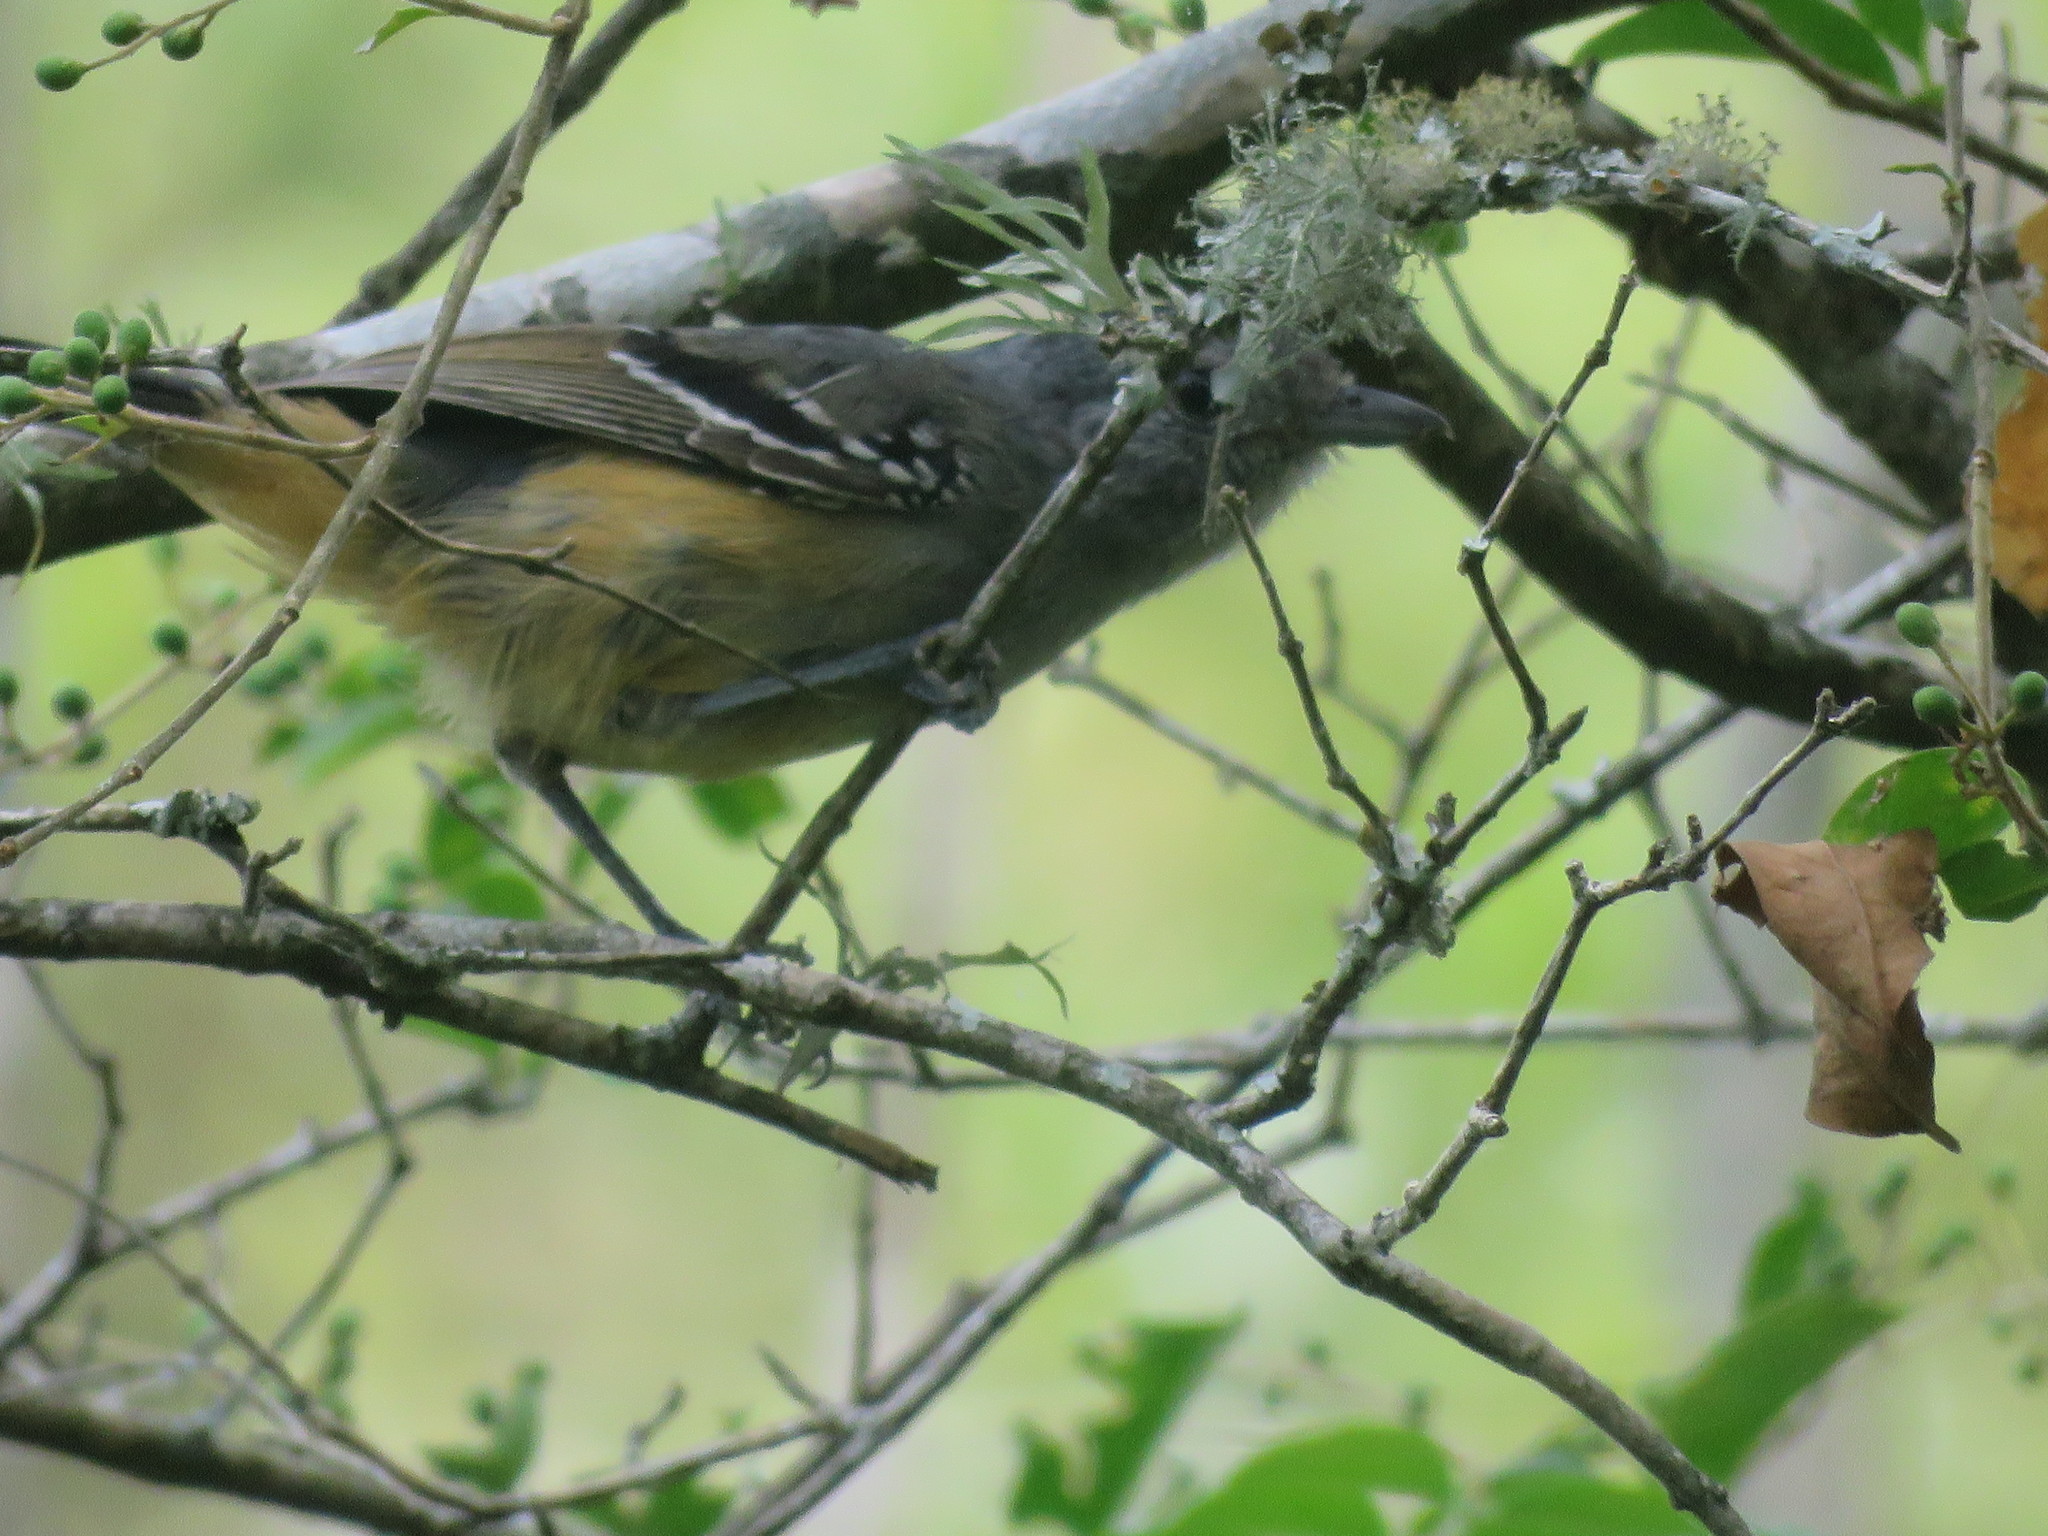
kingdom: Animalia
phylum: Chordata
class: Aves
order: Passeriformes
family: Thamnophilidae
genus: Thamnophilus
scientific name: Thamnophilus caerulescens
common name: Variable antshrike
